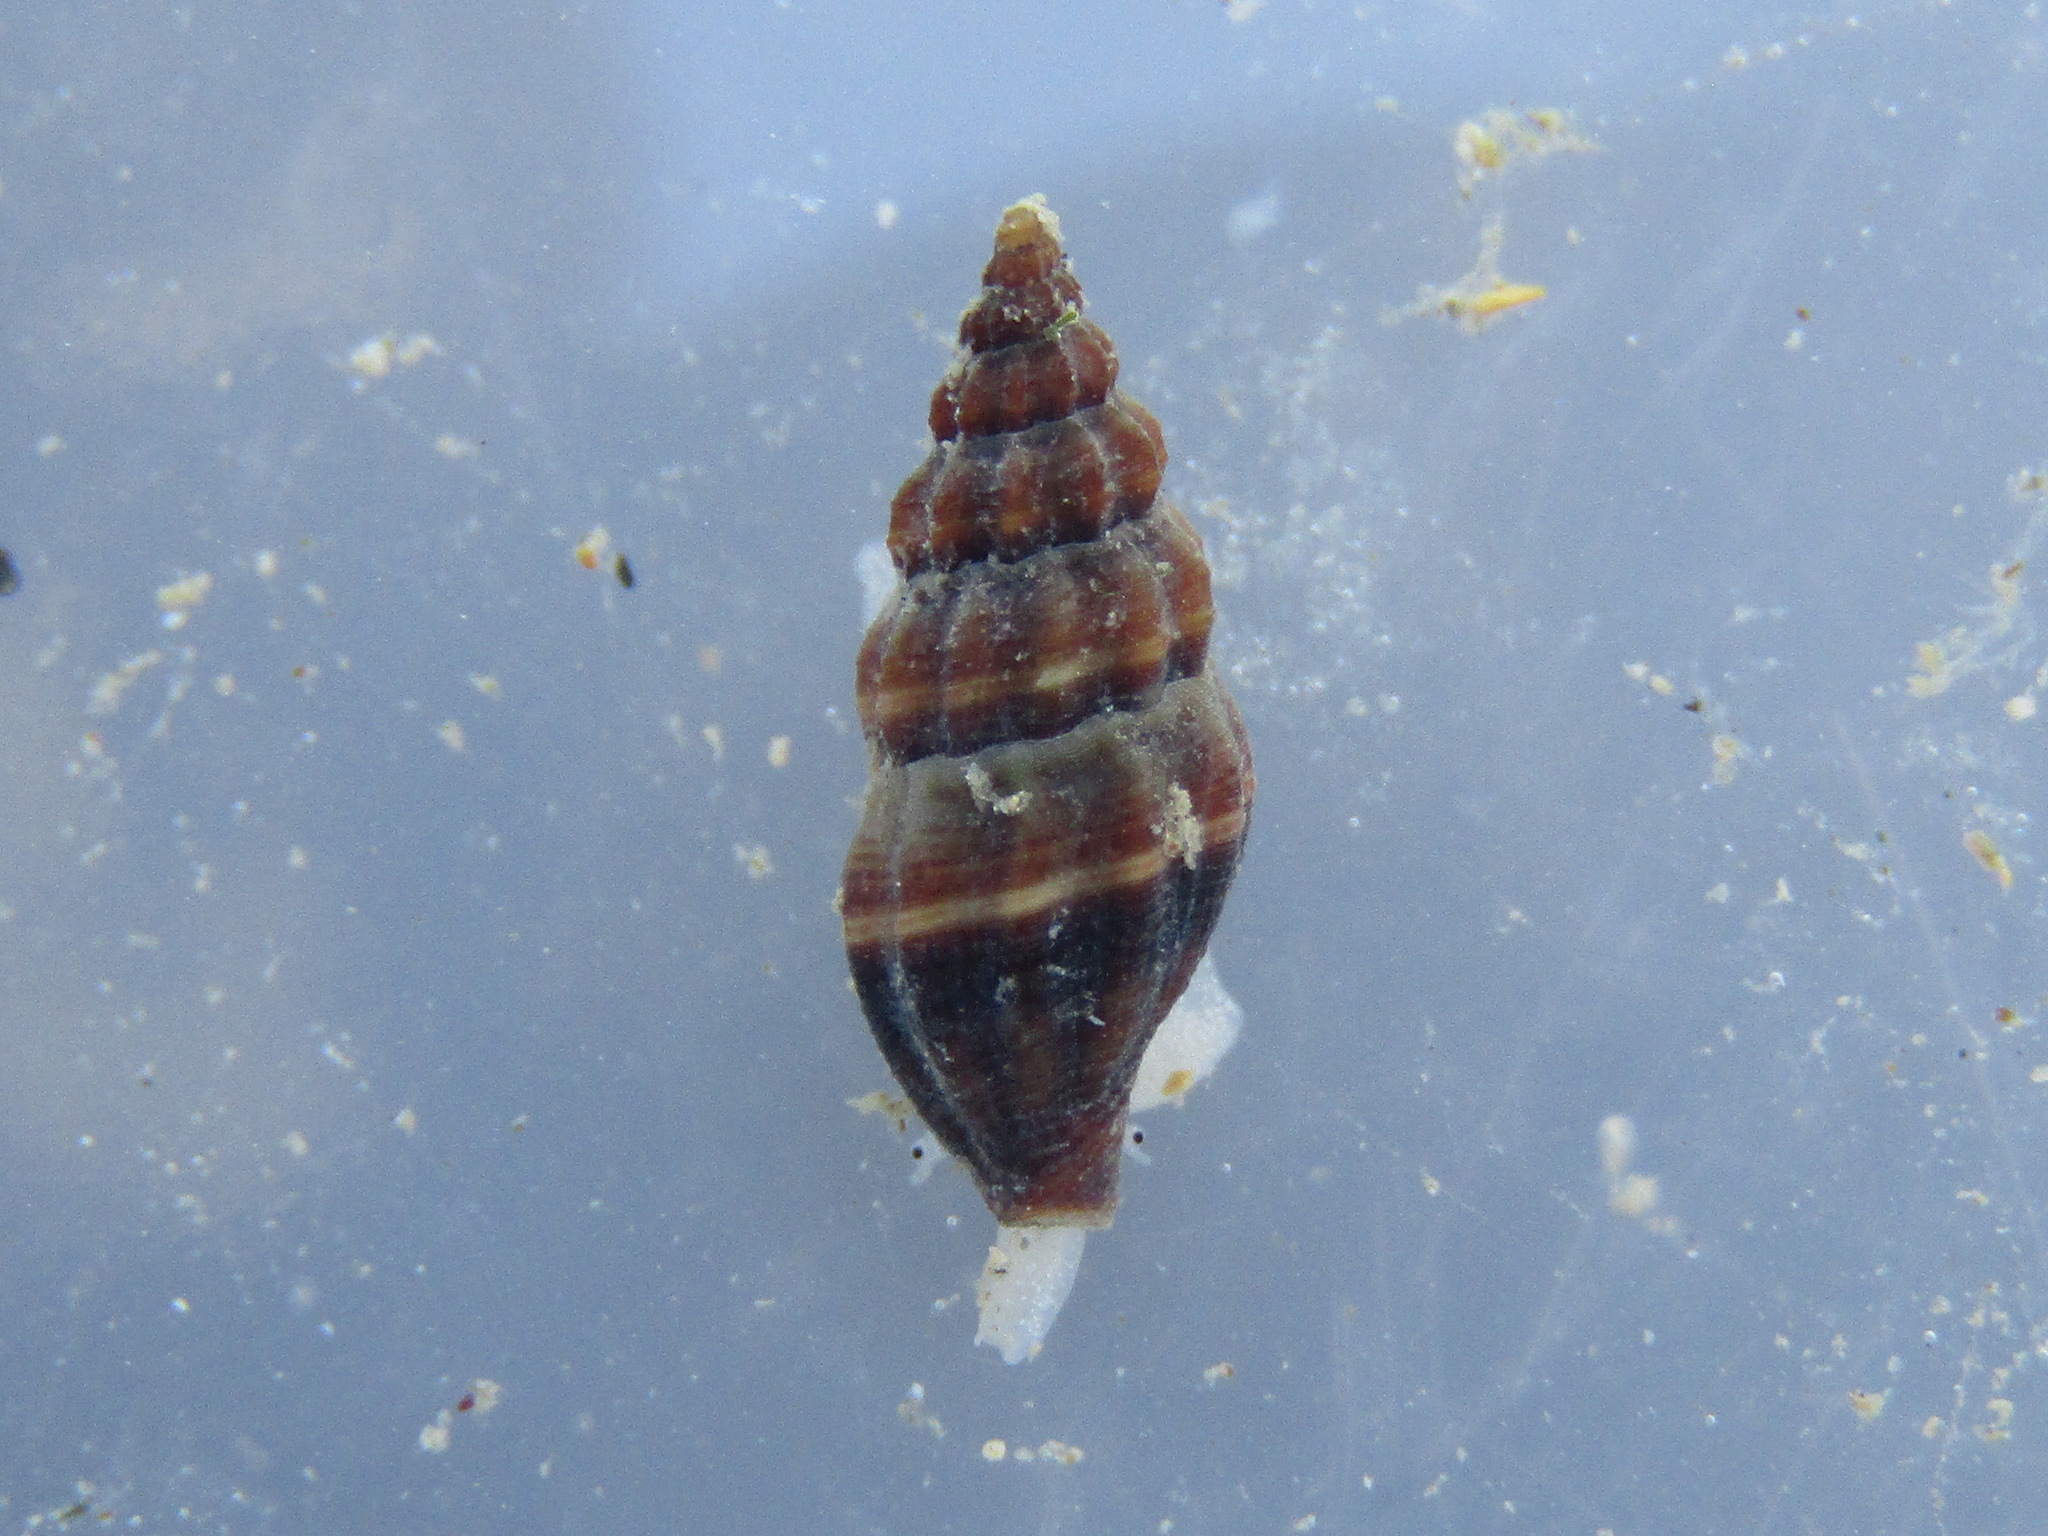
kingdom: Animalia
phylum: Mollusca
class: Gastropoda
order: Neogastropoda
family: Mangeliidae
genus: Neoguraleus
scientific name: Neoguraleus sinclairi
